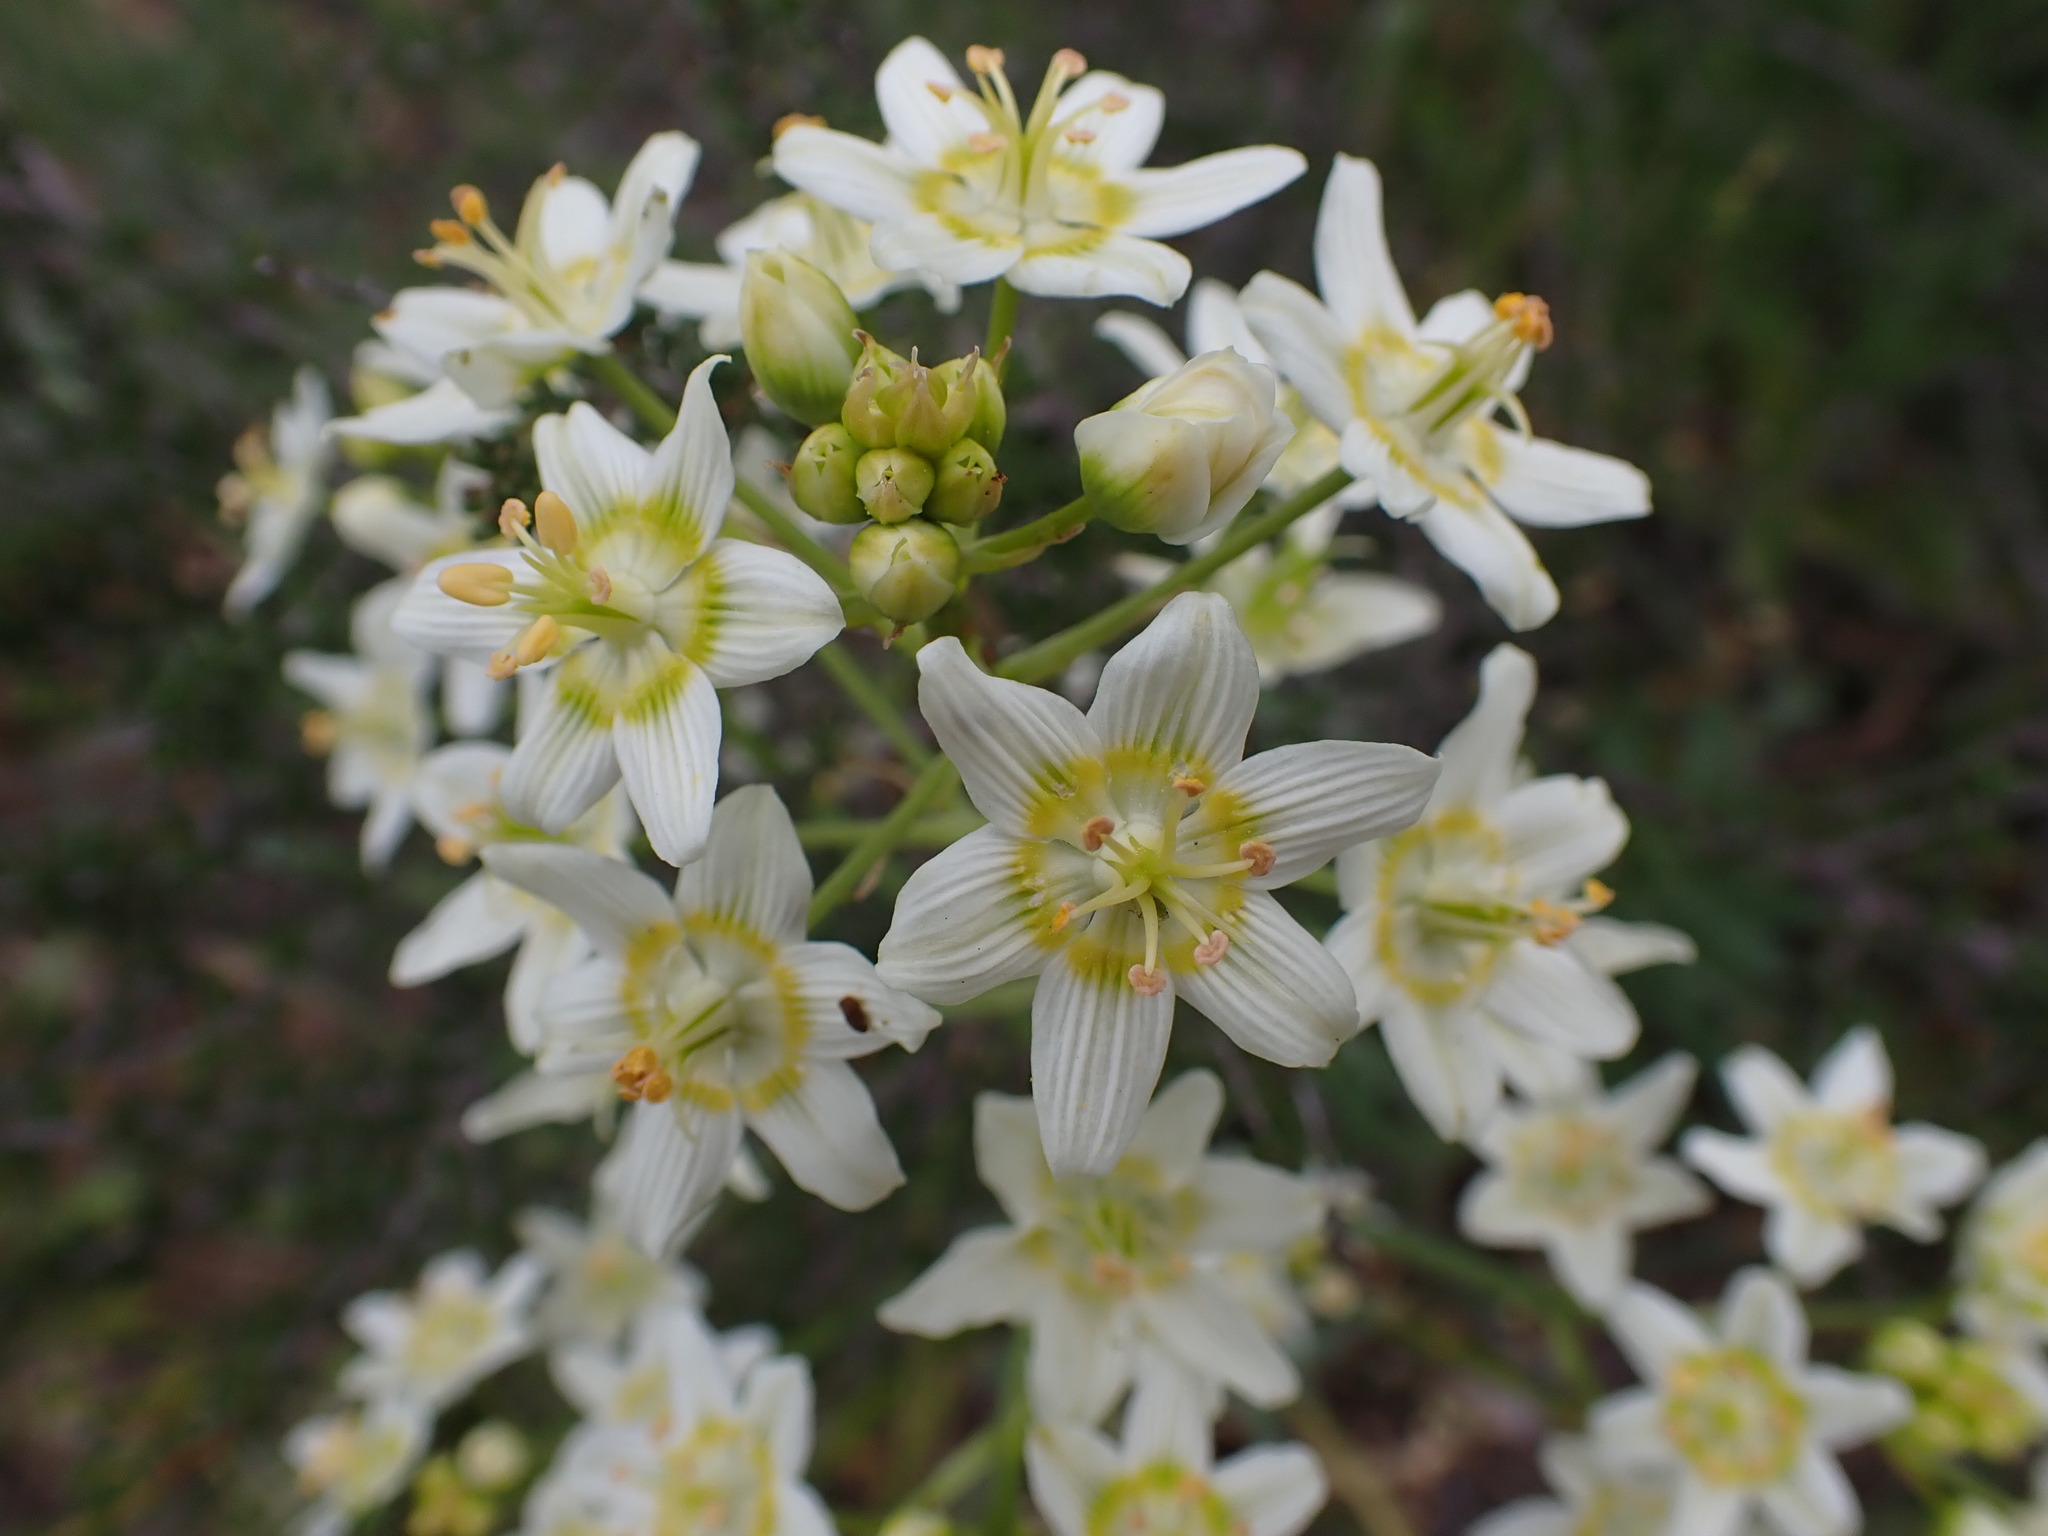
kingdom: Plantae
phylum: Tracheophyta
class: Liliopsida
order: Liliales
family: Melanthiaceae
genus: Toxicoscordion
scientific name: Toxicoscordion fremontii
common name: Fremont's death camas
